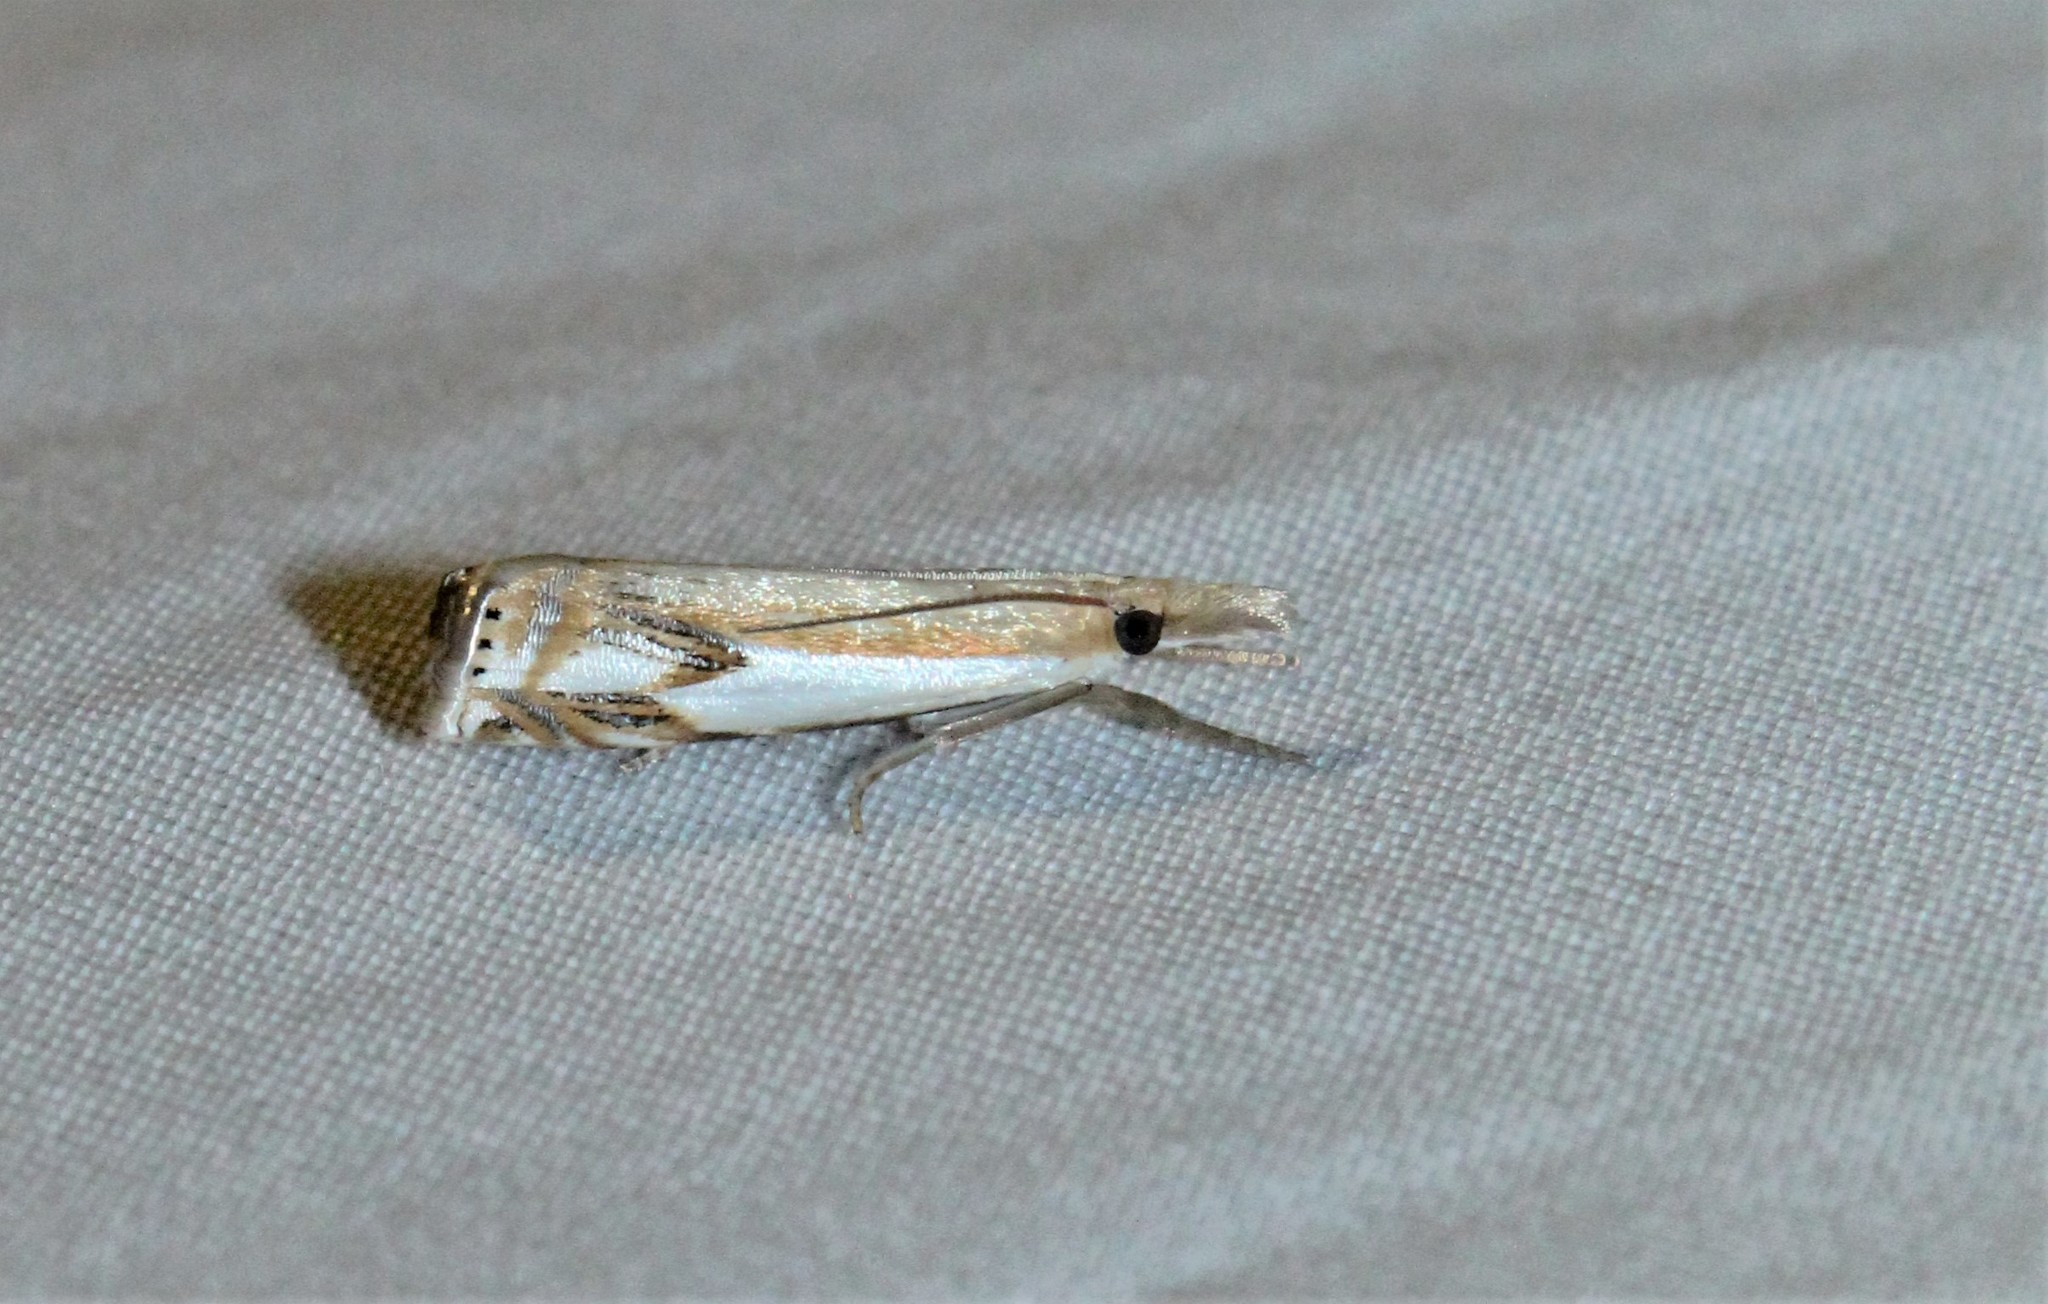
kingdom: Animalia
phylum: Arthropoda
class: Insecta
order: Lepidoptera
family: Crambidae
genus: Crambus
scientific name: Crambus agitatellus
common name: Double-banded grass-veneer
